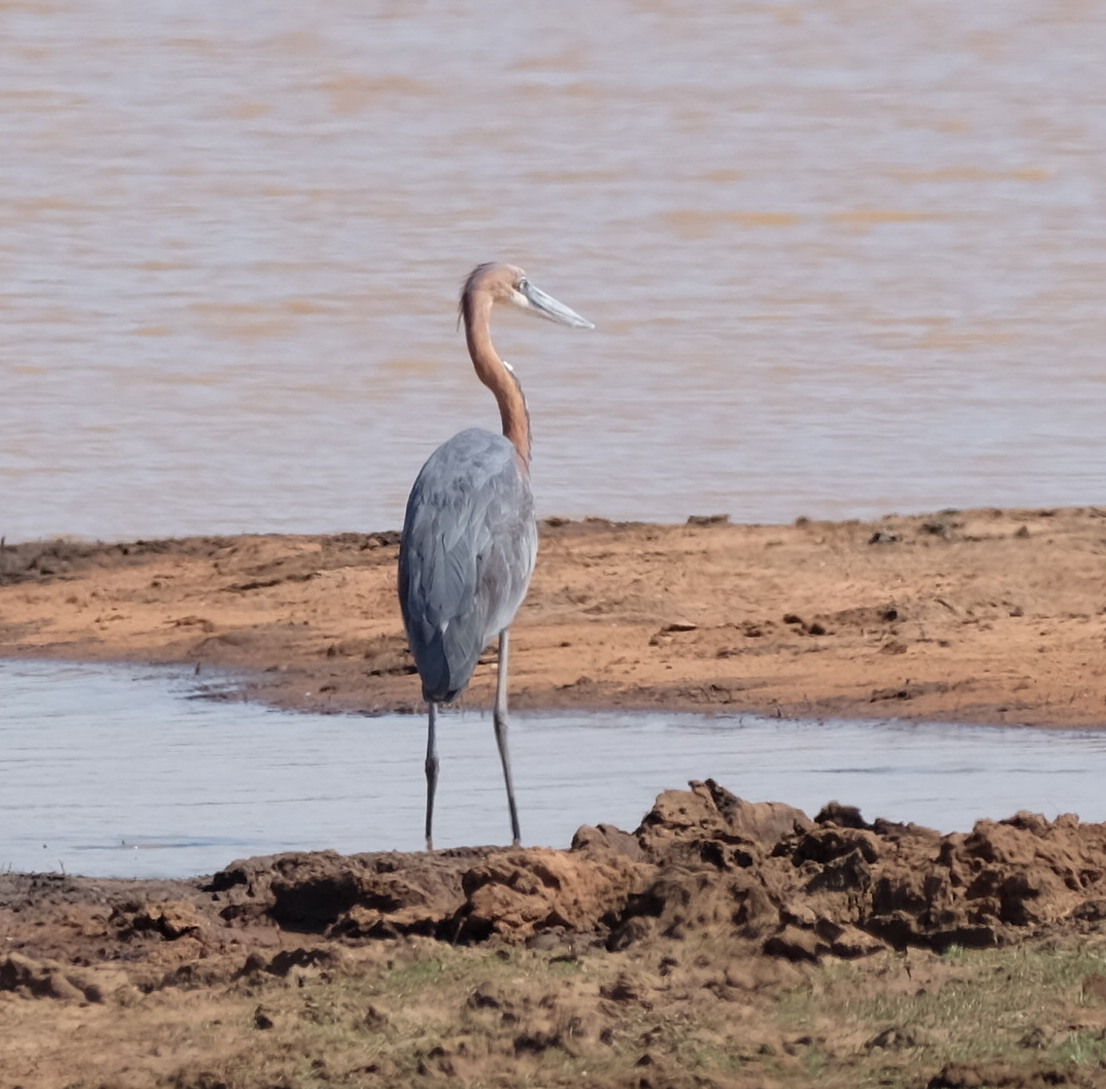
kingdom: Animalia
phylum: Chordata
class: Aves
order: Pelecaniformes
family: Ardeidae
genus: Ardea
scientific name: Ardea goliath
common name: Goliath heron
